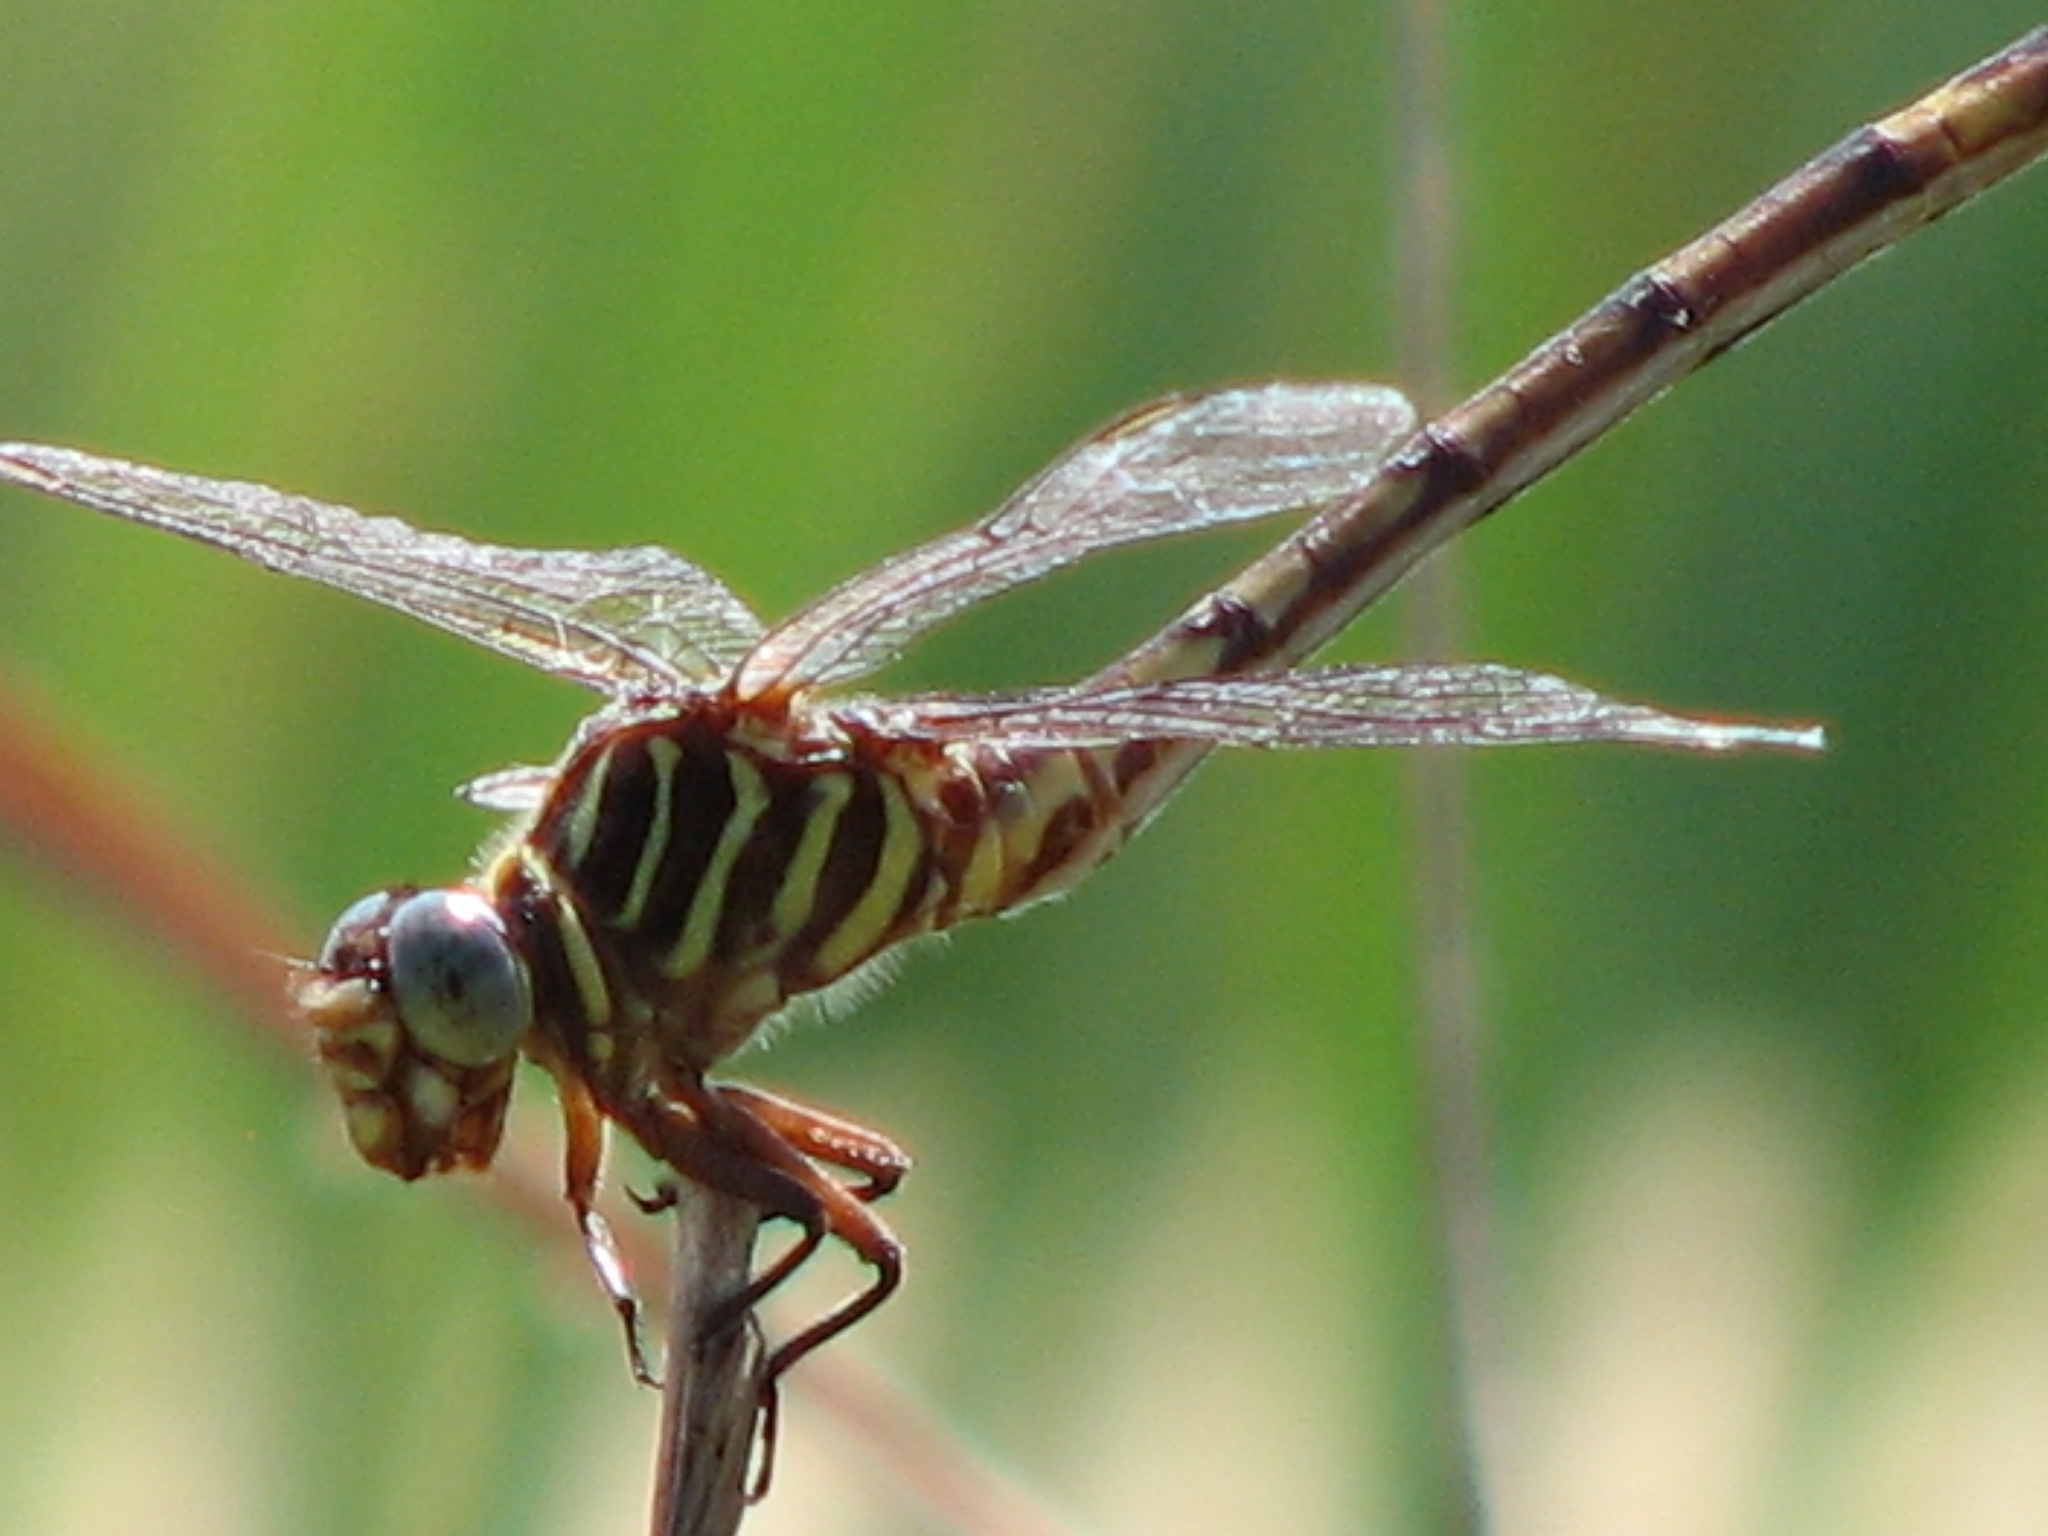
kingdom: Animalia
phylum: Arthropoda
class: Insecta
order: Odonata
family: Gomphidae
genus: Aphylla
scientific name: Aphylla protracta
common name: Narrow-striped forceptail
